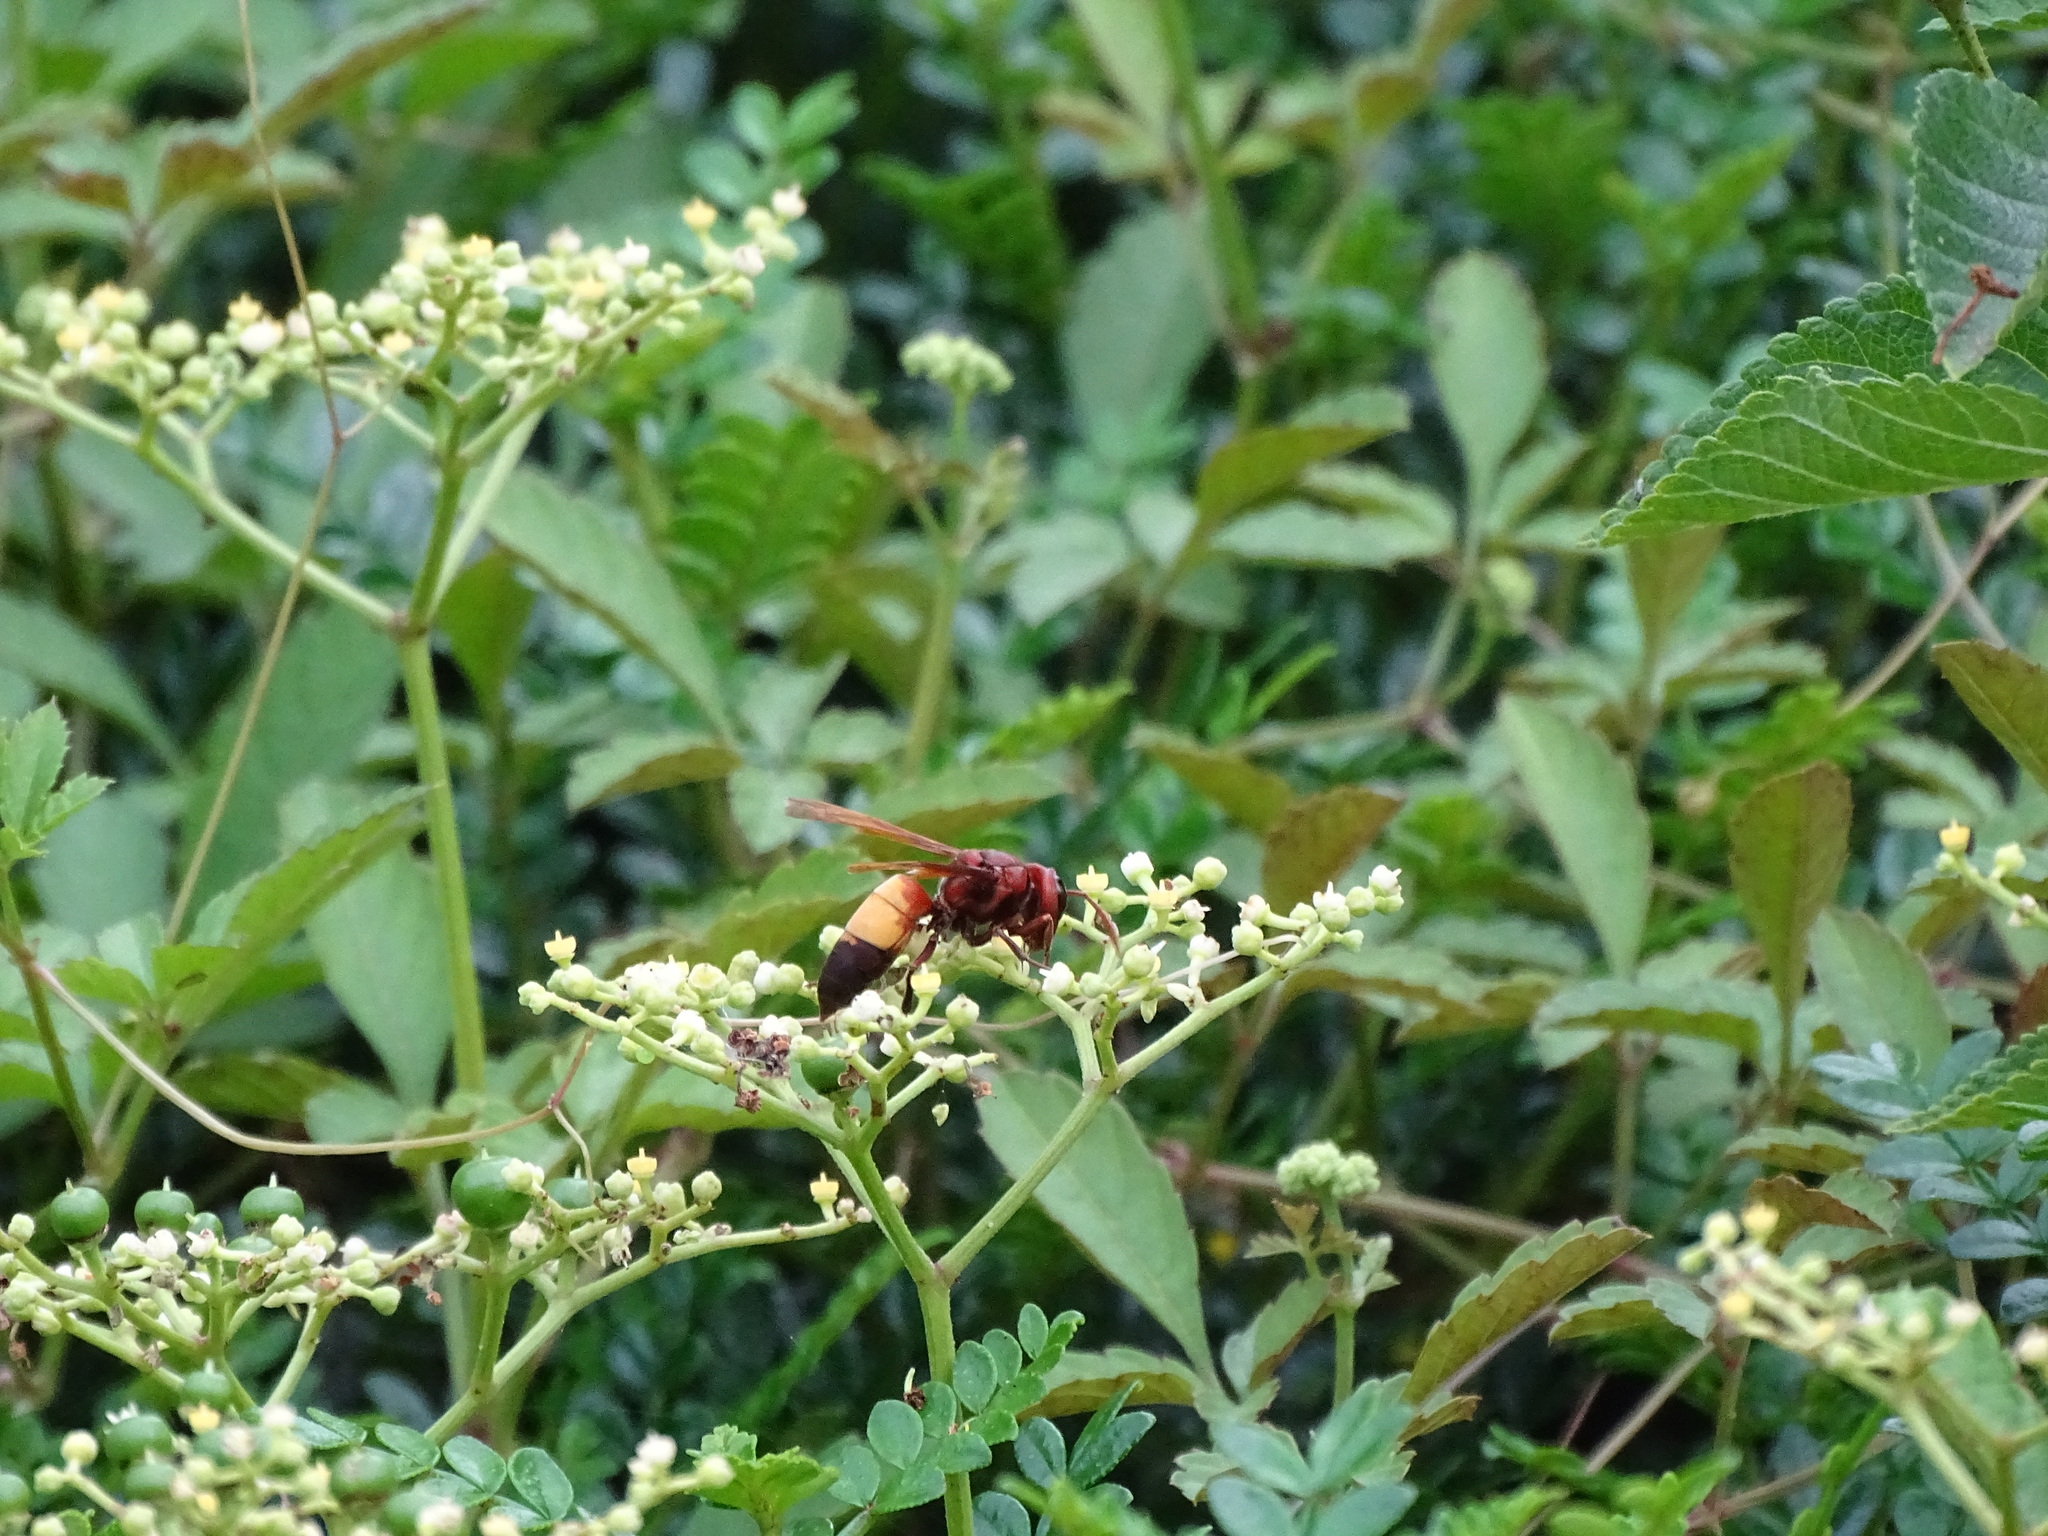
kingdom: Animalia
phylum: Arthropoda
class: Insecta
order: Hymenoptera
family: Vespidae
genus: Vespa
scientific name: Vespa affinis
